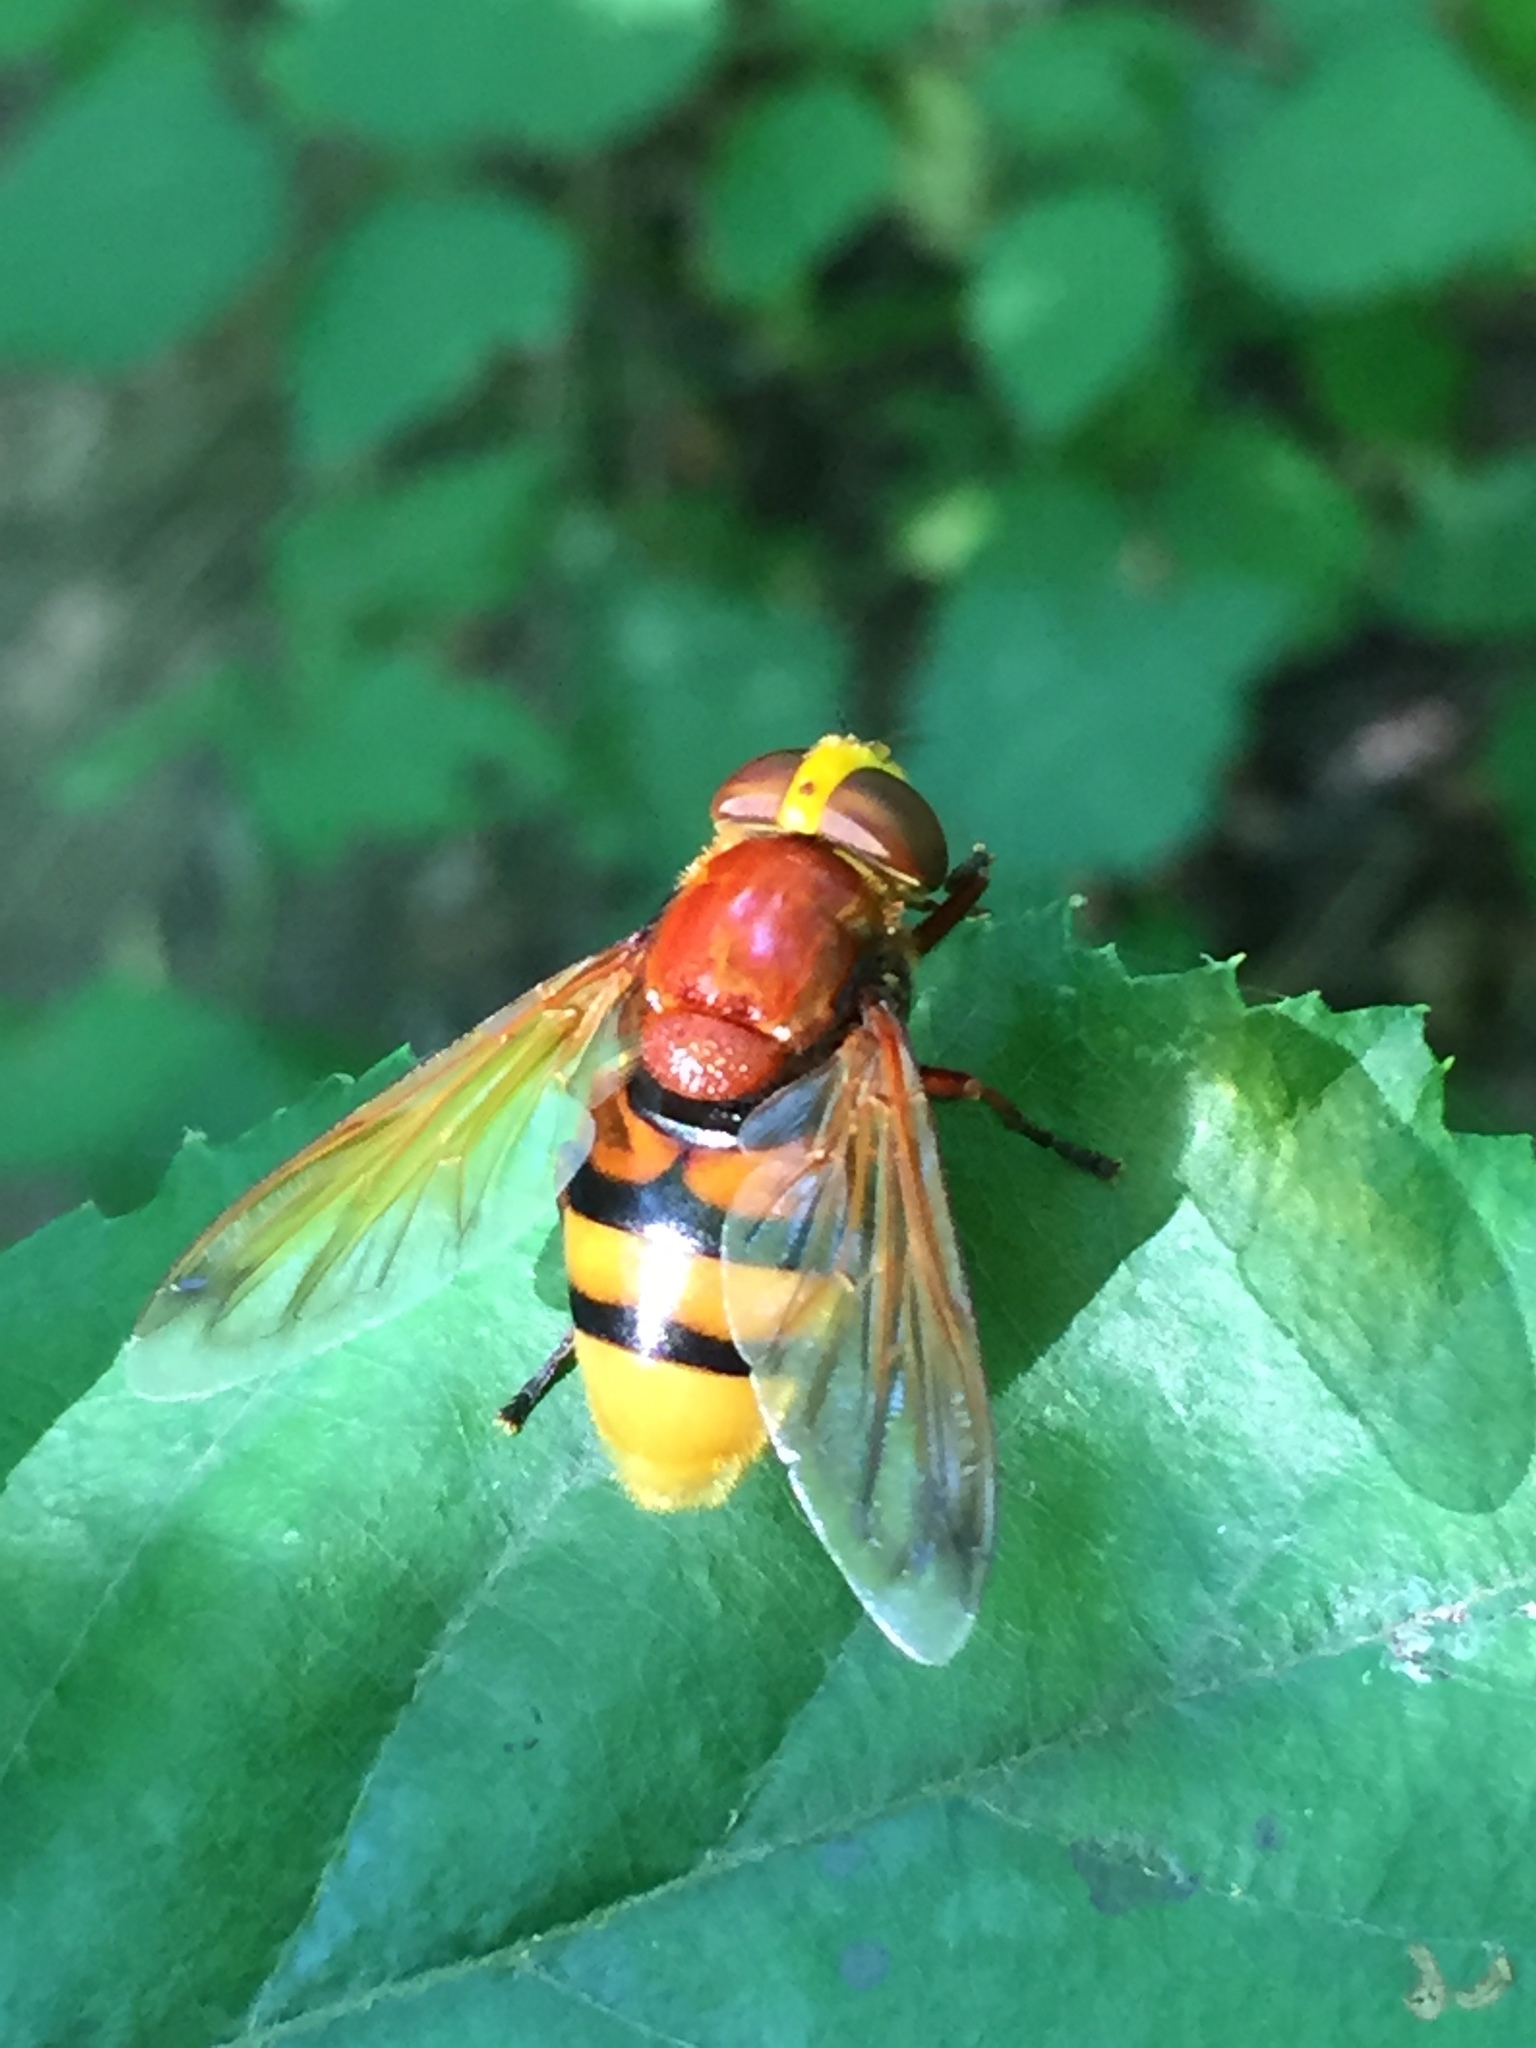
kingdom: Animalia
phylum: Arthropoda
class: Insecta
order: Diptera
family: Syrphidae
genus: Volucella
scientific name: Volucella zonaria
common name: Hornet hoverfly
